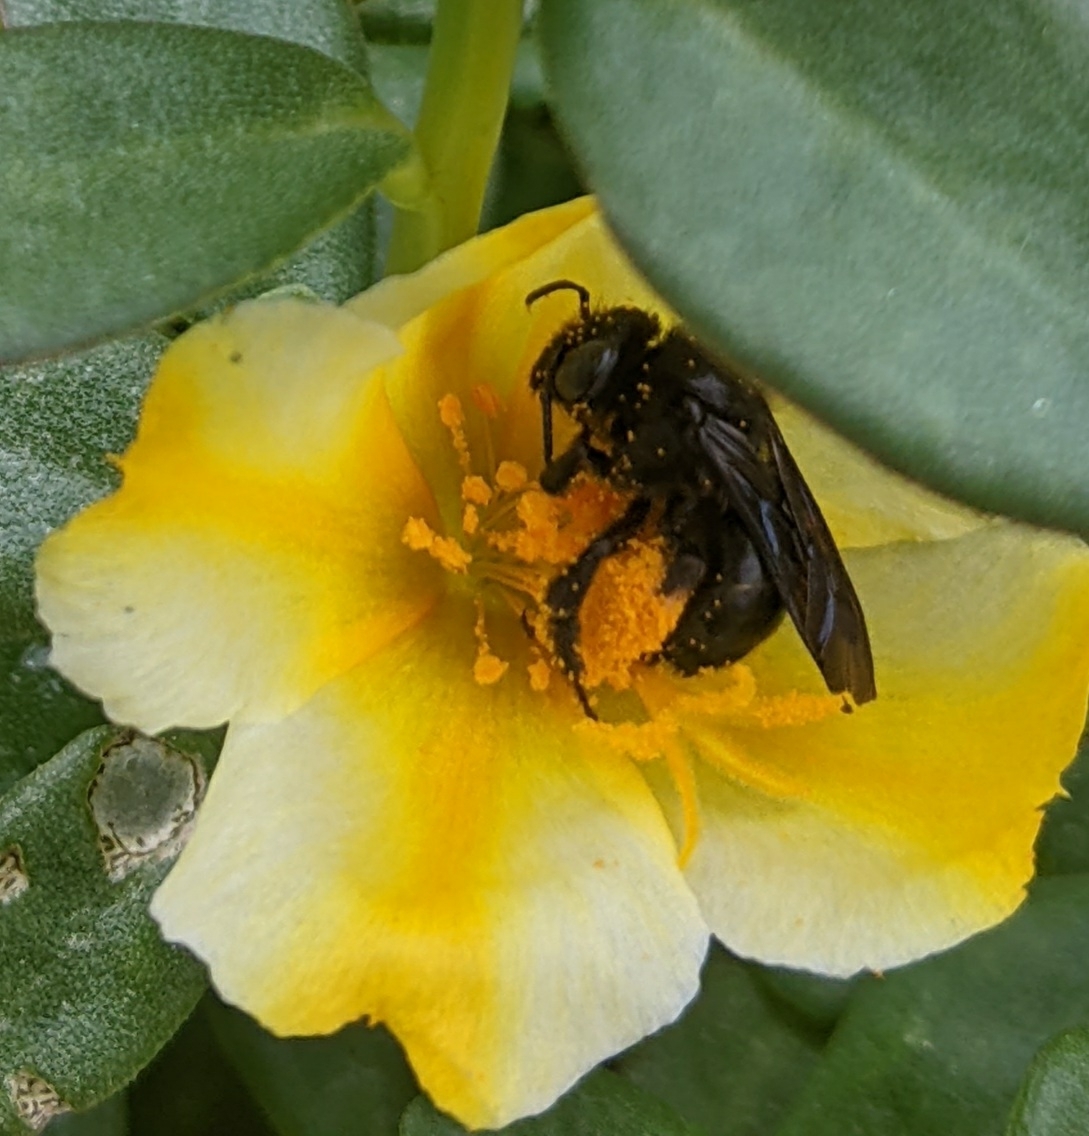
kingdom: Animalia
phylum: Arthropoda
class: Insecta
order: Hymenoptera
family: Apidae
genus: Melissodes
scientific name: Melissodes bimaculatus
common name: Two-spotted long-horned bee
